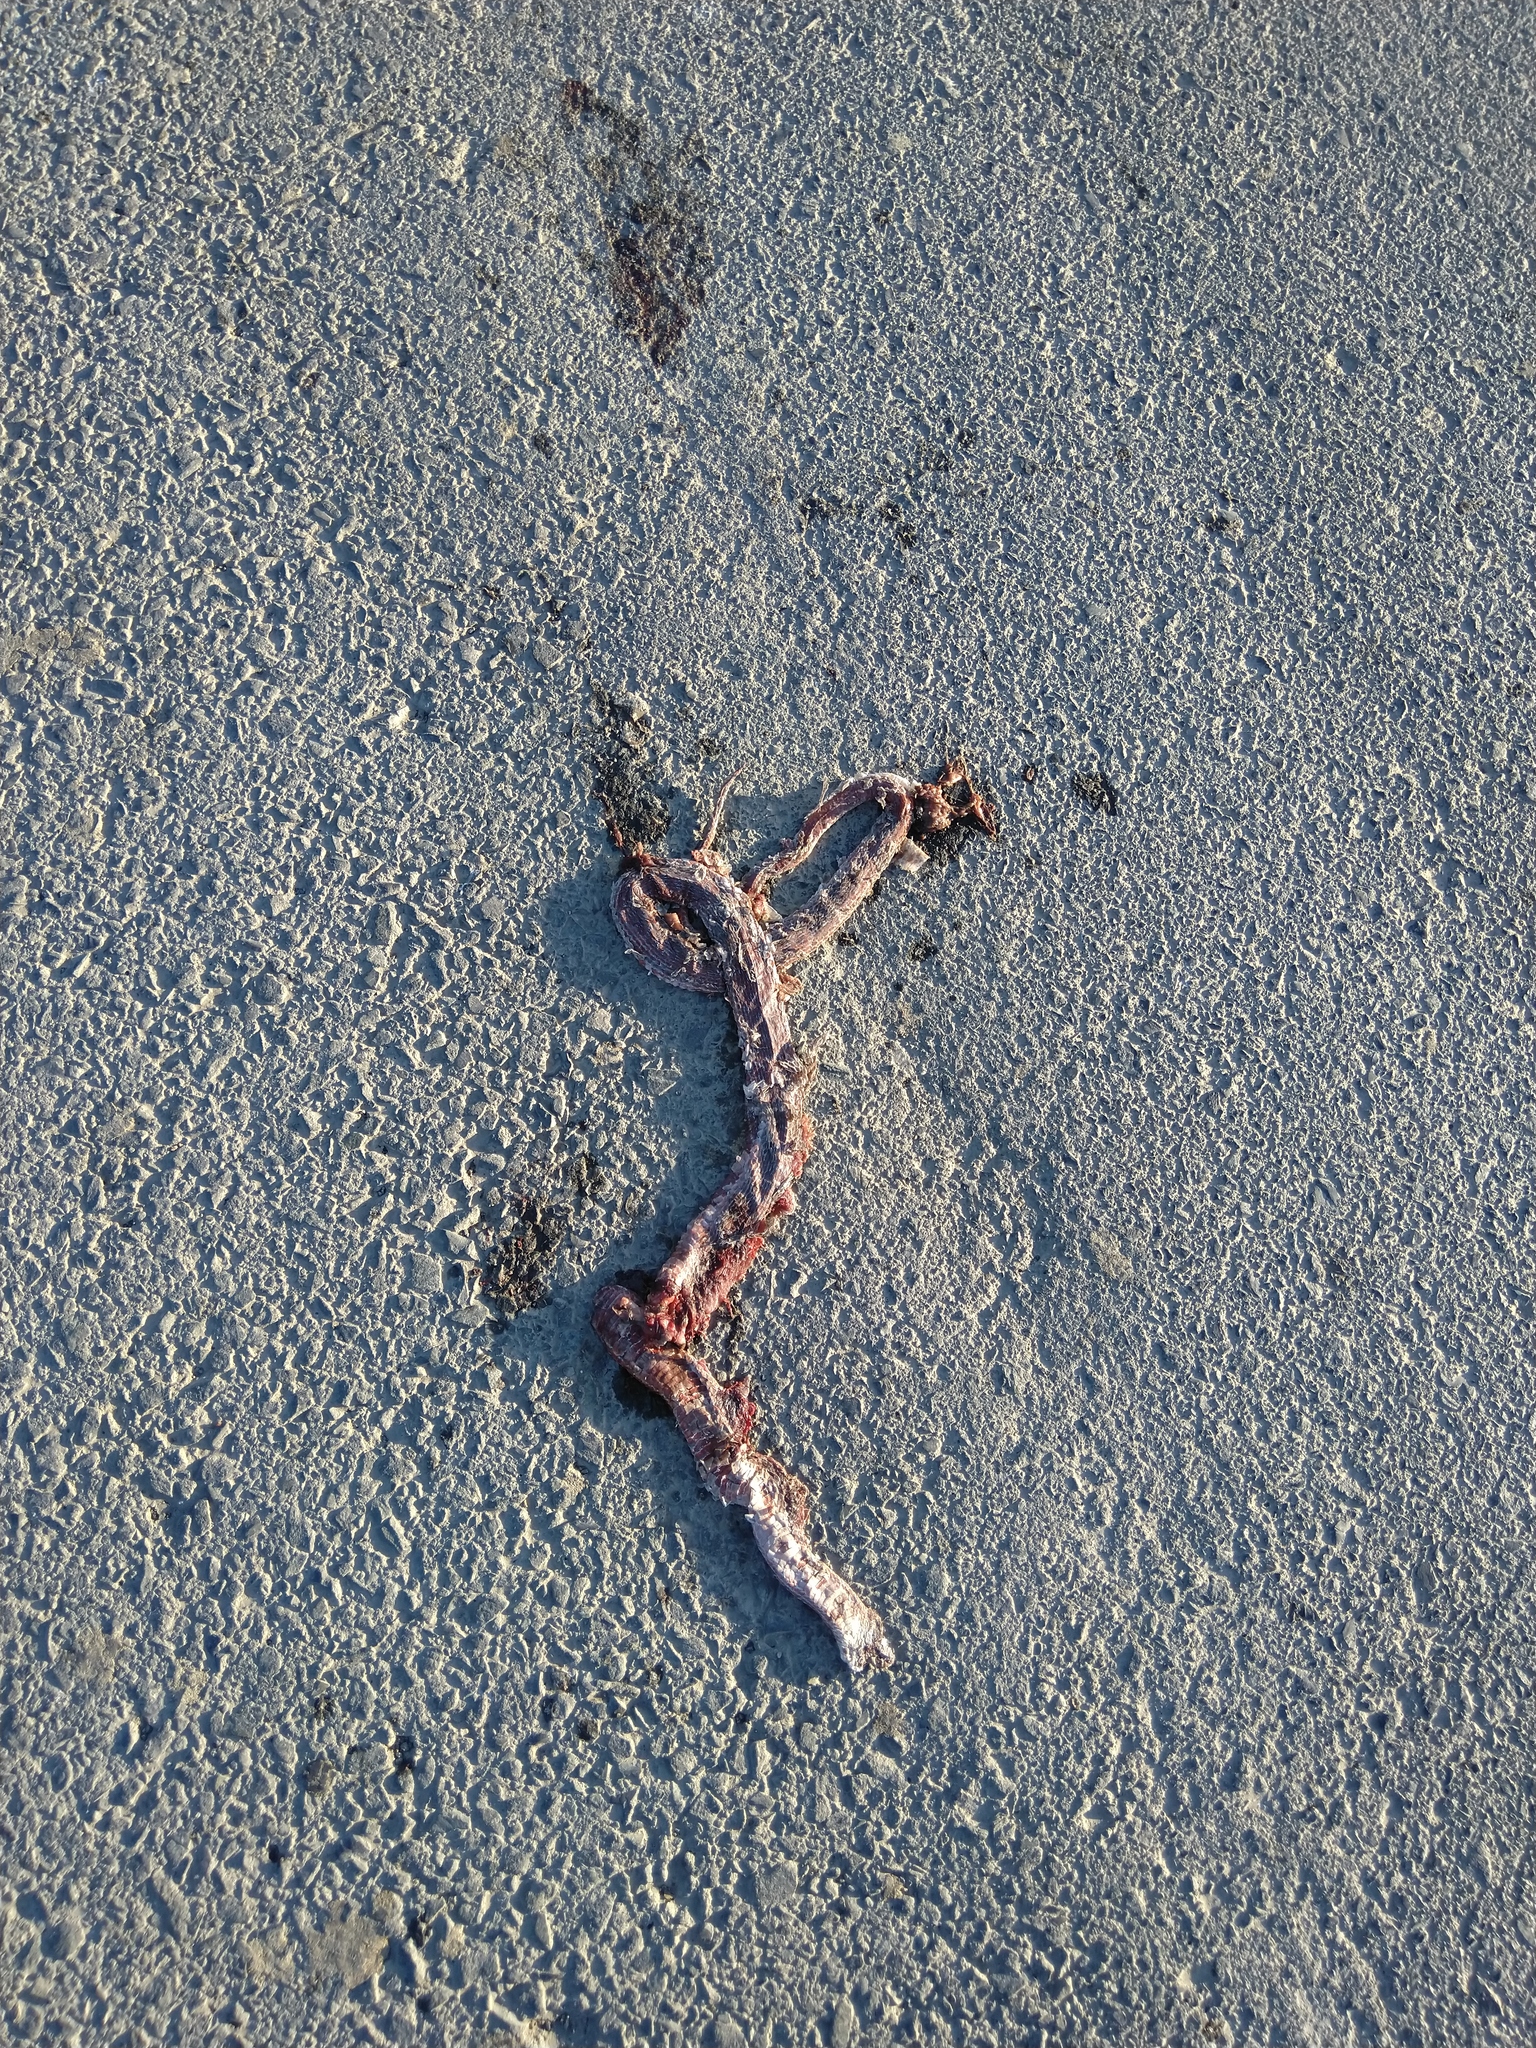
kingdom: Animalia
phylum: Chordata
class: Squamata
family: Colubridae
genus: Dolichophis
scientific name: Dolichophis schmidti
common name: Red-bellied racer
